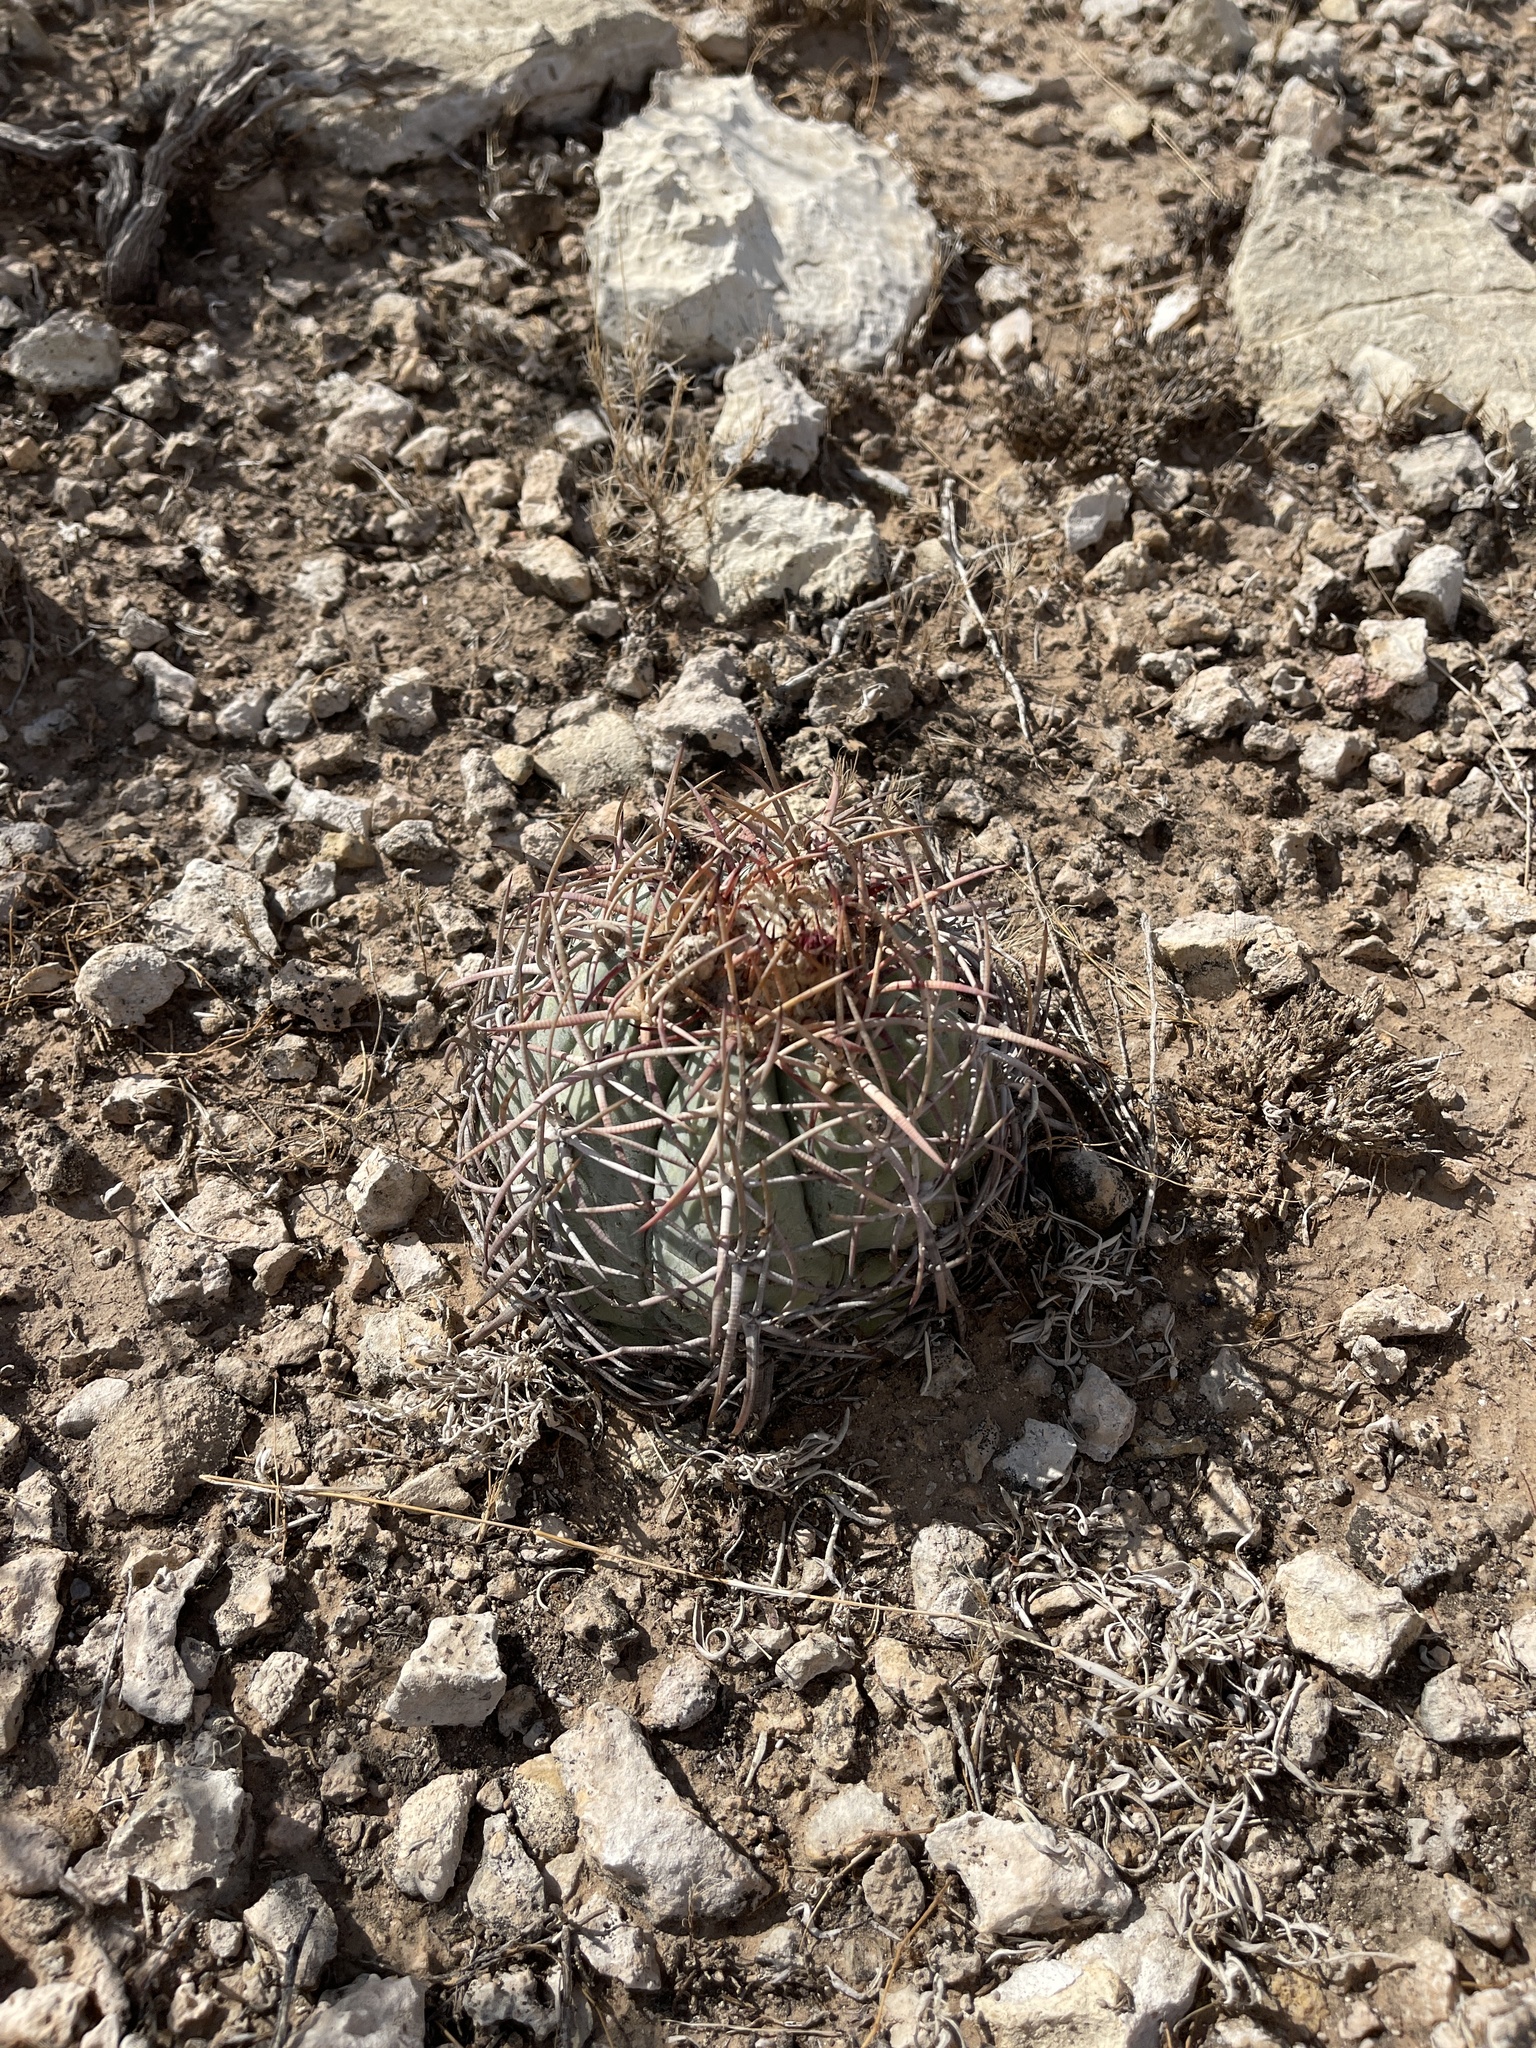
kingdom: Plantae
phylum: Tracheophyta
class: Magnoliopsida
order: Caryophyllales
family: Cactaceae
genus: Echinocactus
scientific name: Echinocactus horizonthalonius
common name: Devilshead
